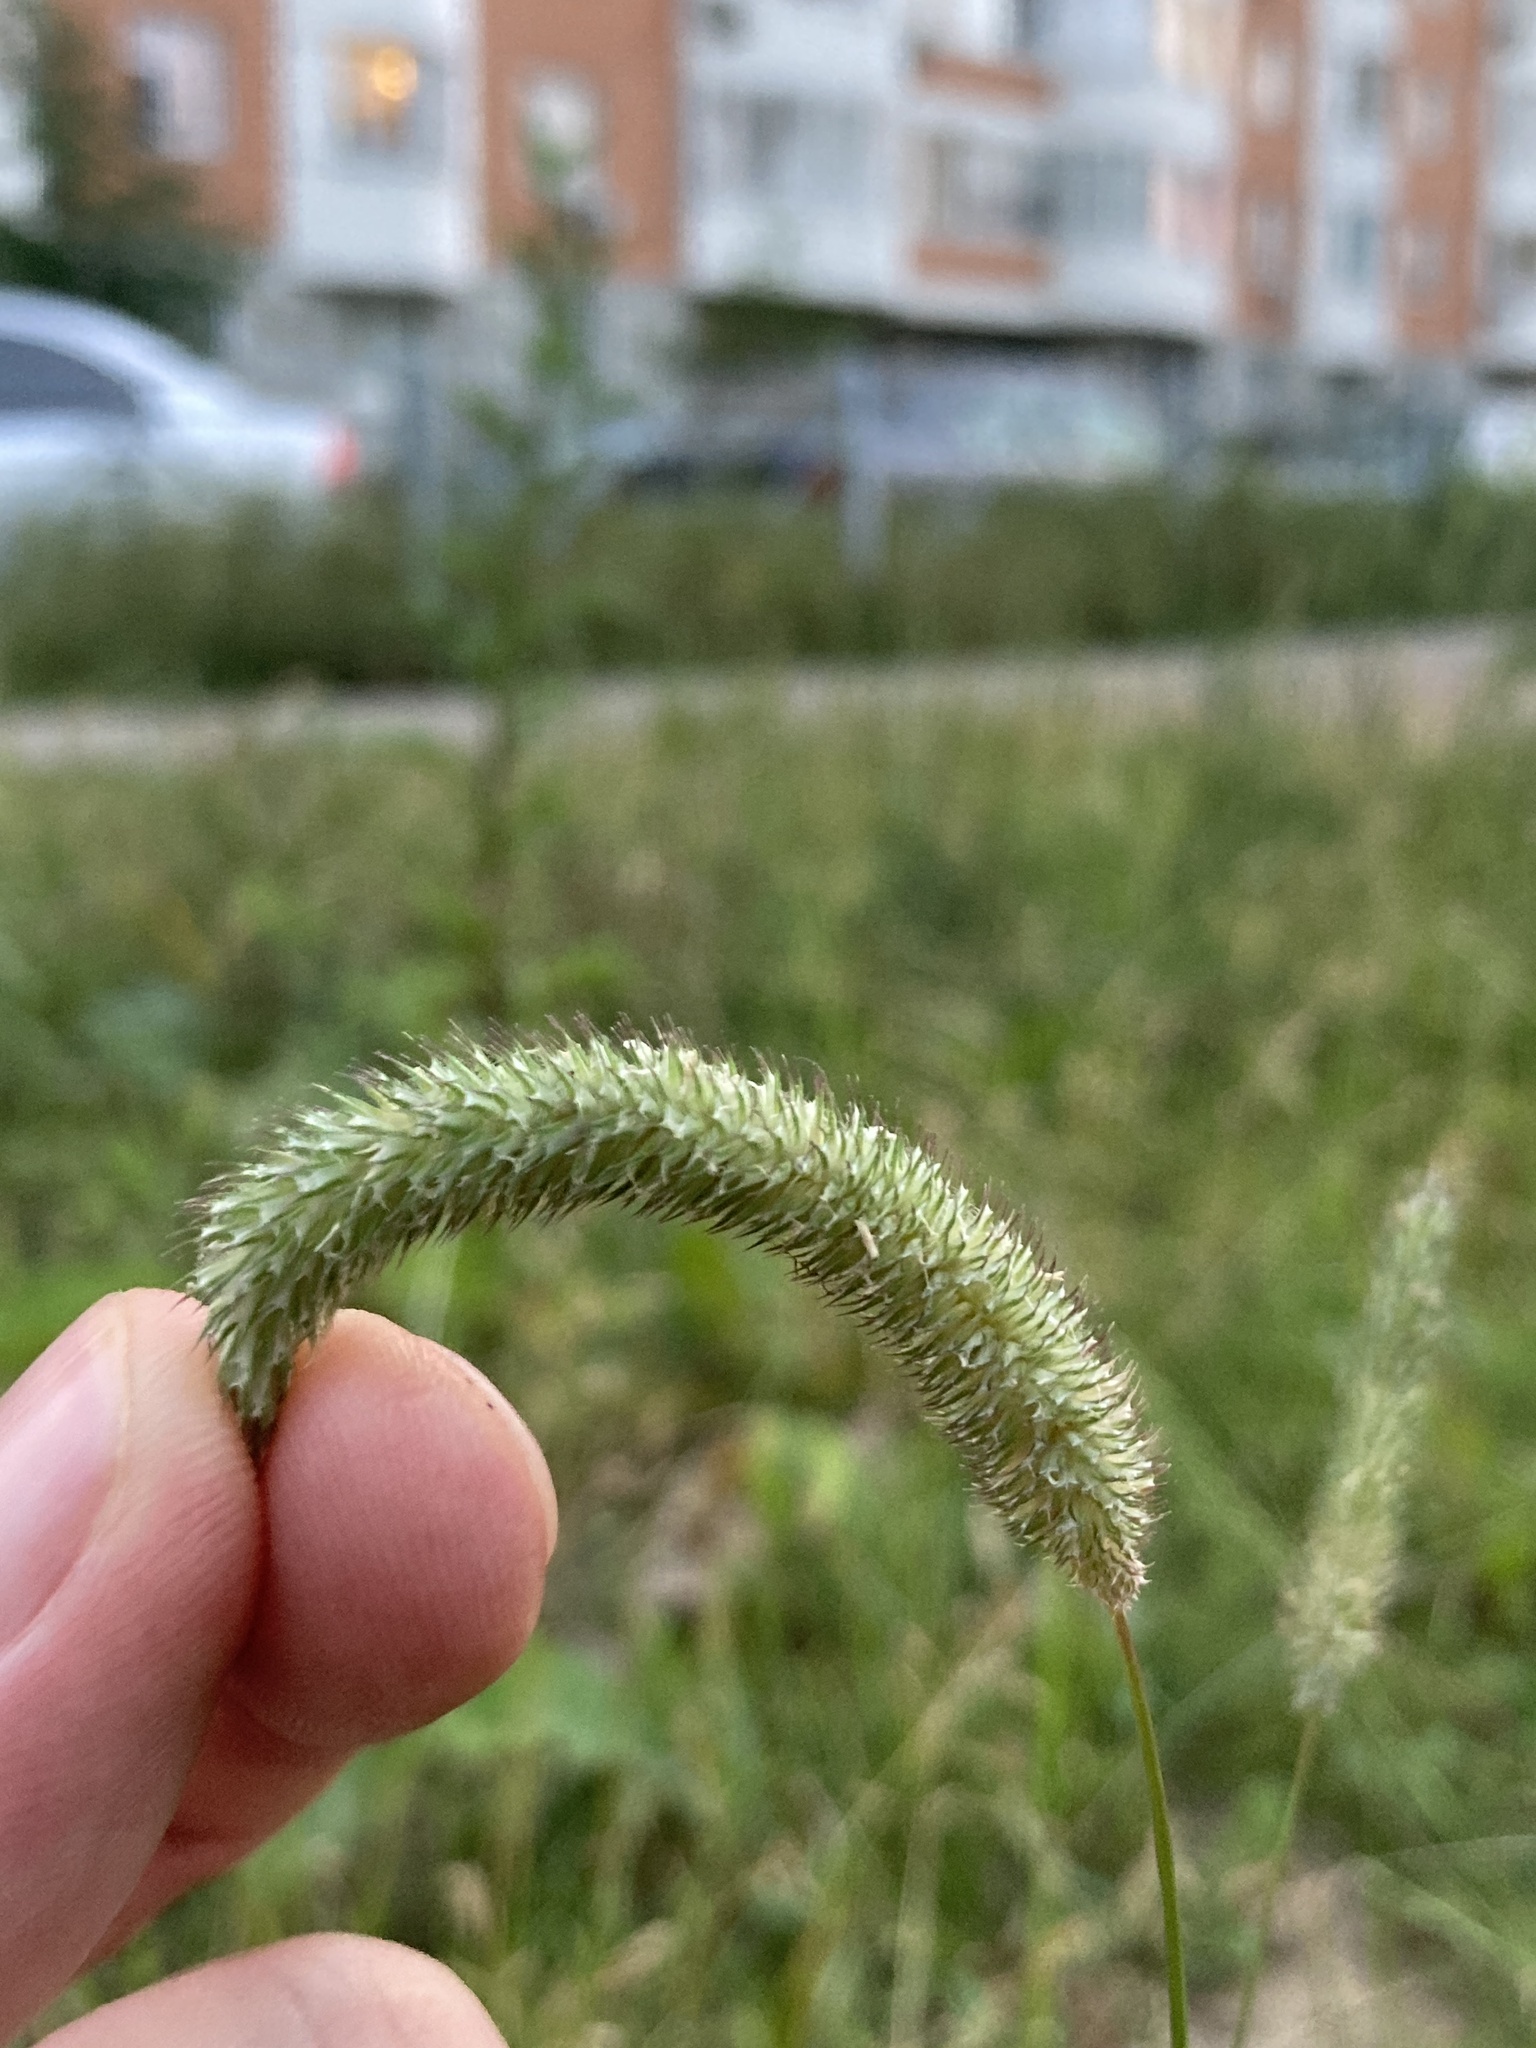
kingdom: Plantae
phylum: Tracheophyta
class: Liliopsida
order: Poales
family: Poaceae
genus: Phleum
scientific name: Phleum pratense
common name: Timothy grass
